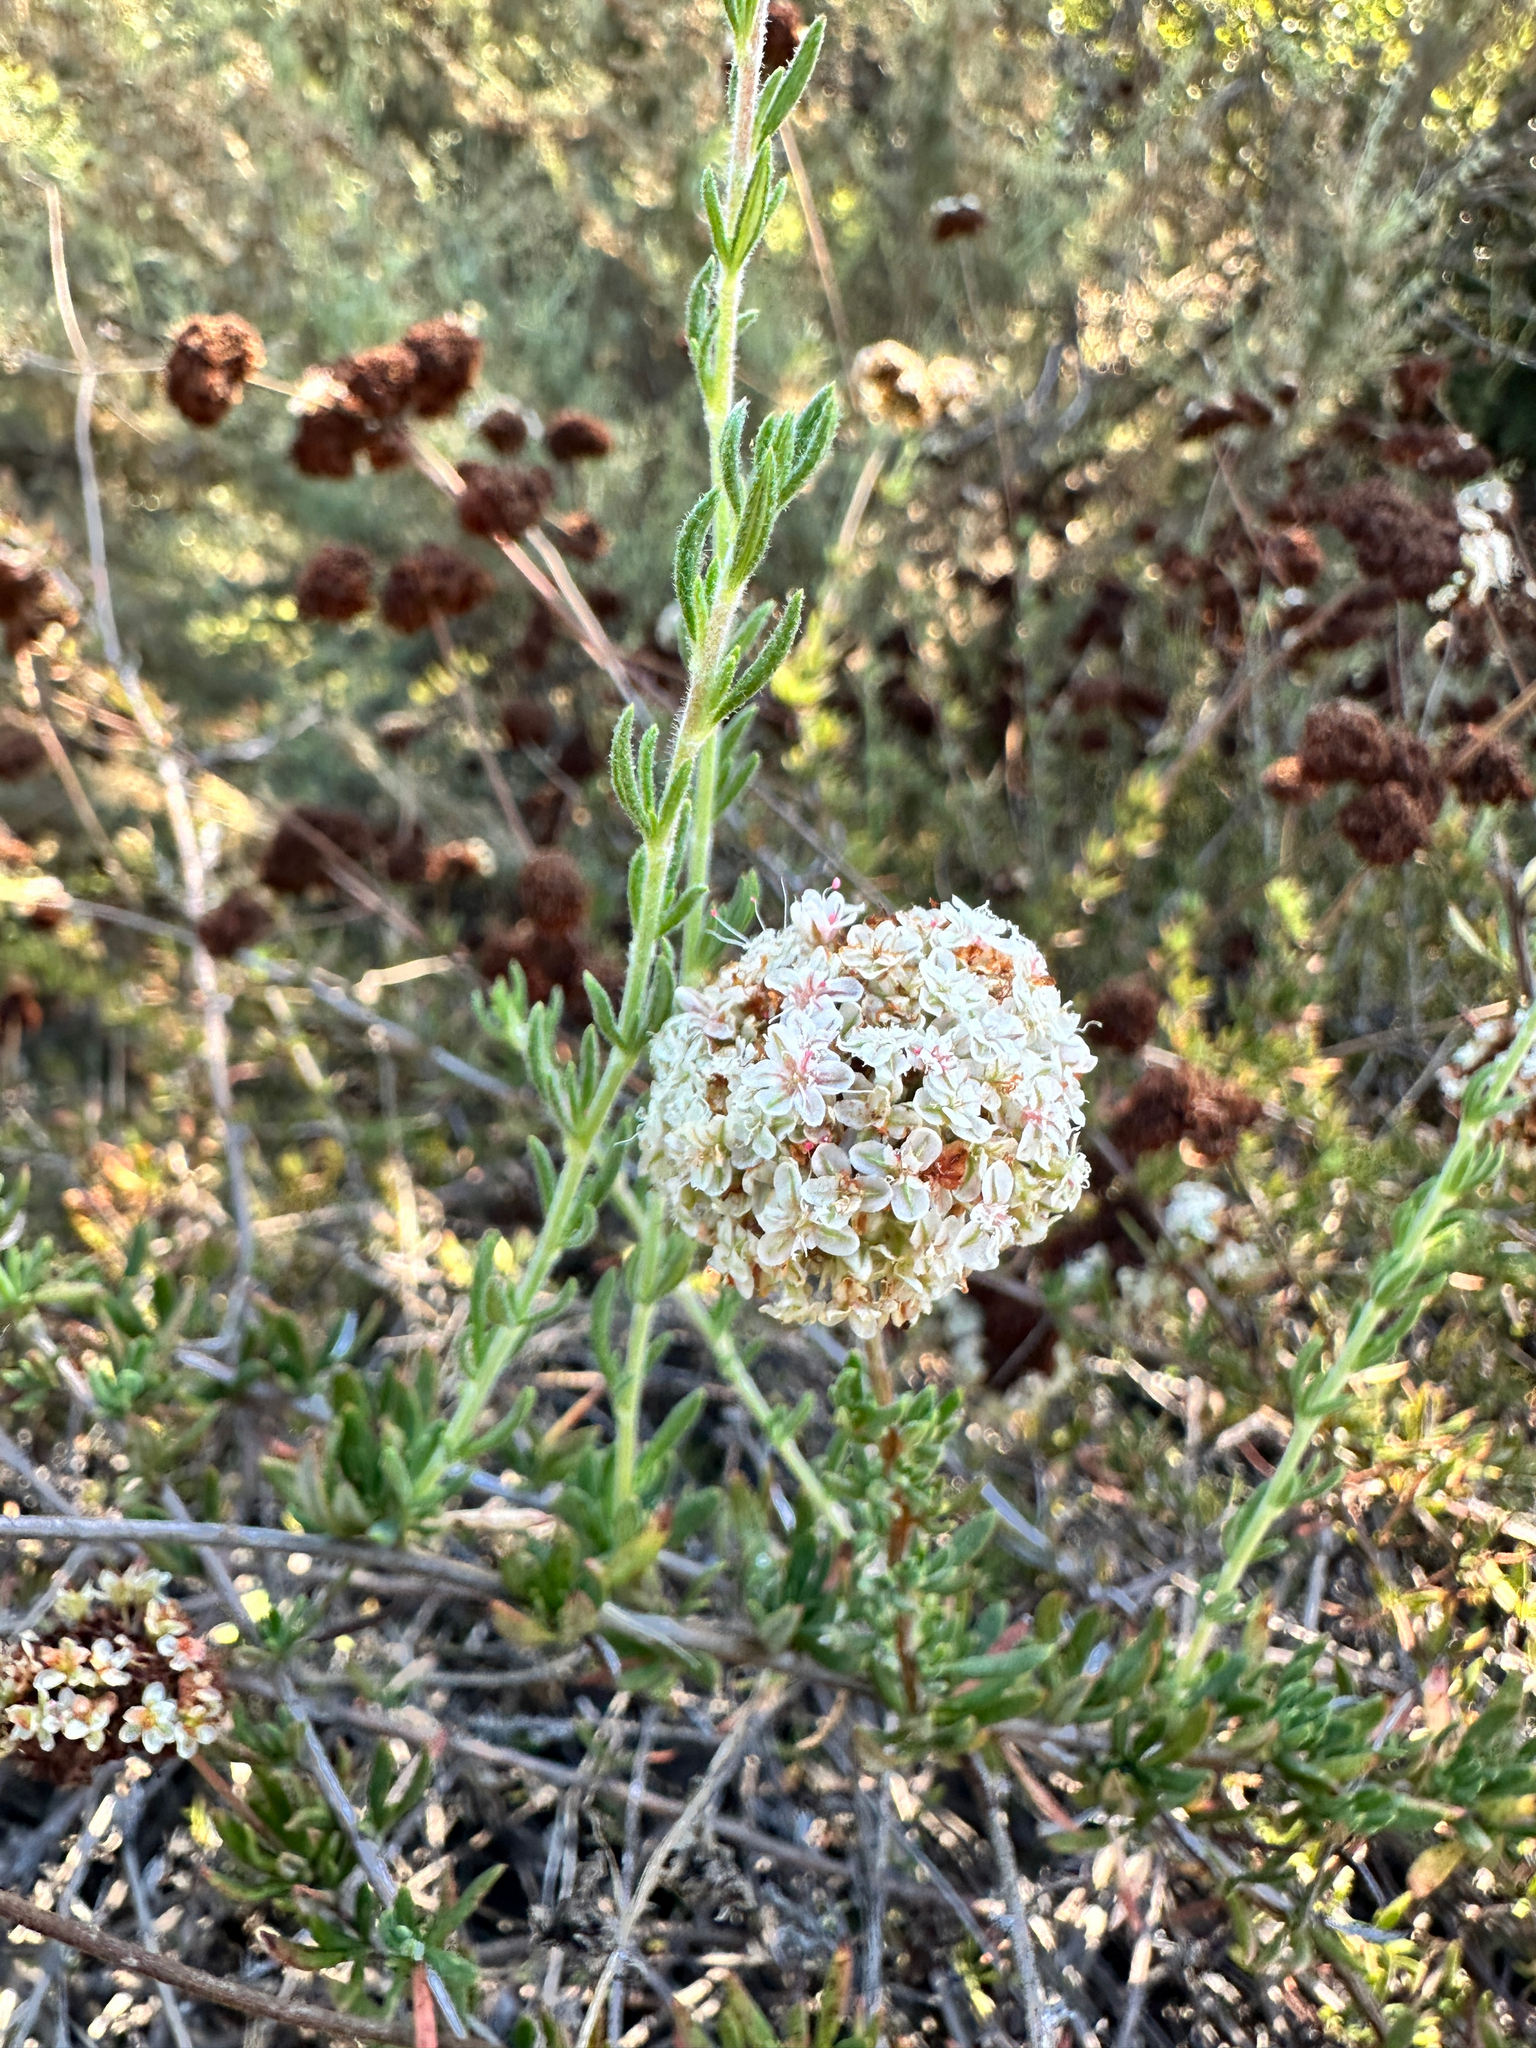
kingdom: Plantae
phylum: Tracheophyta
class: Magnoliopsida
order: Caryophyllales
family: Polygonaceae
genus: Eriogonum
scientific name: Eriogonum fasciculatum
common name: California wild buckwheat
